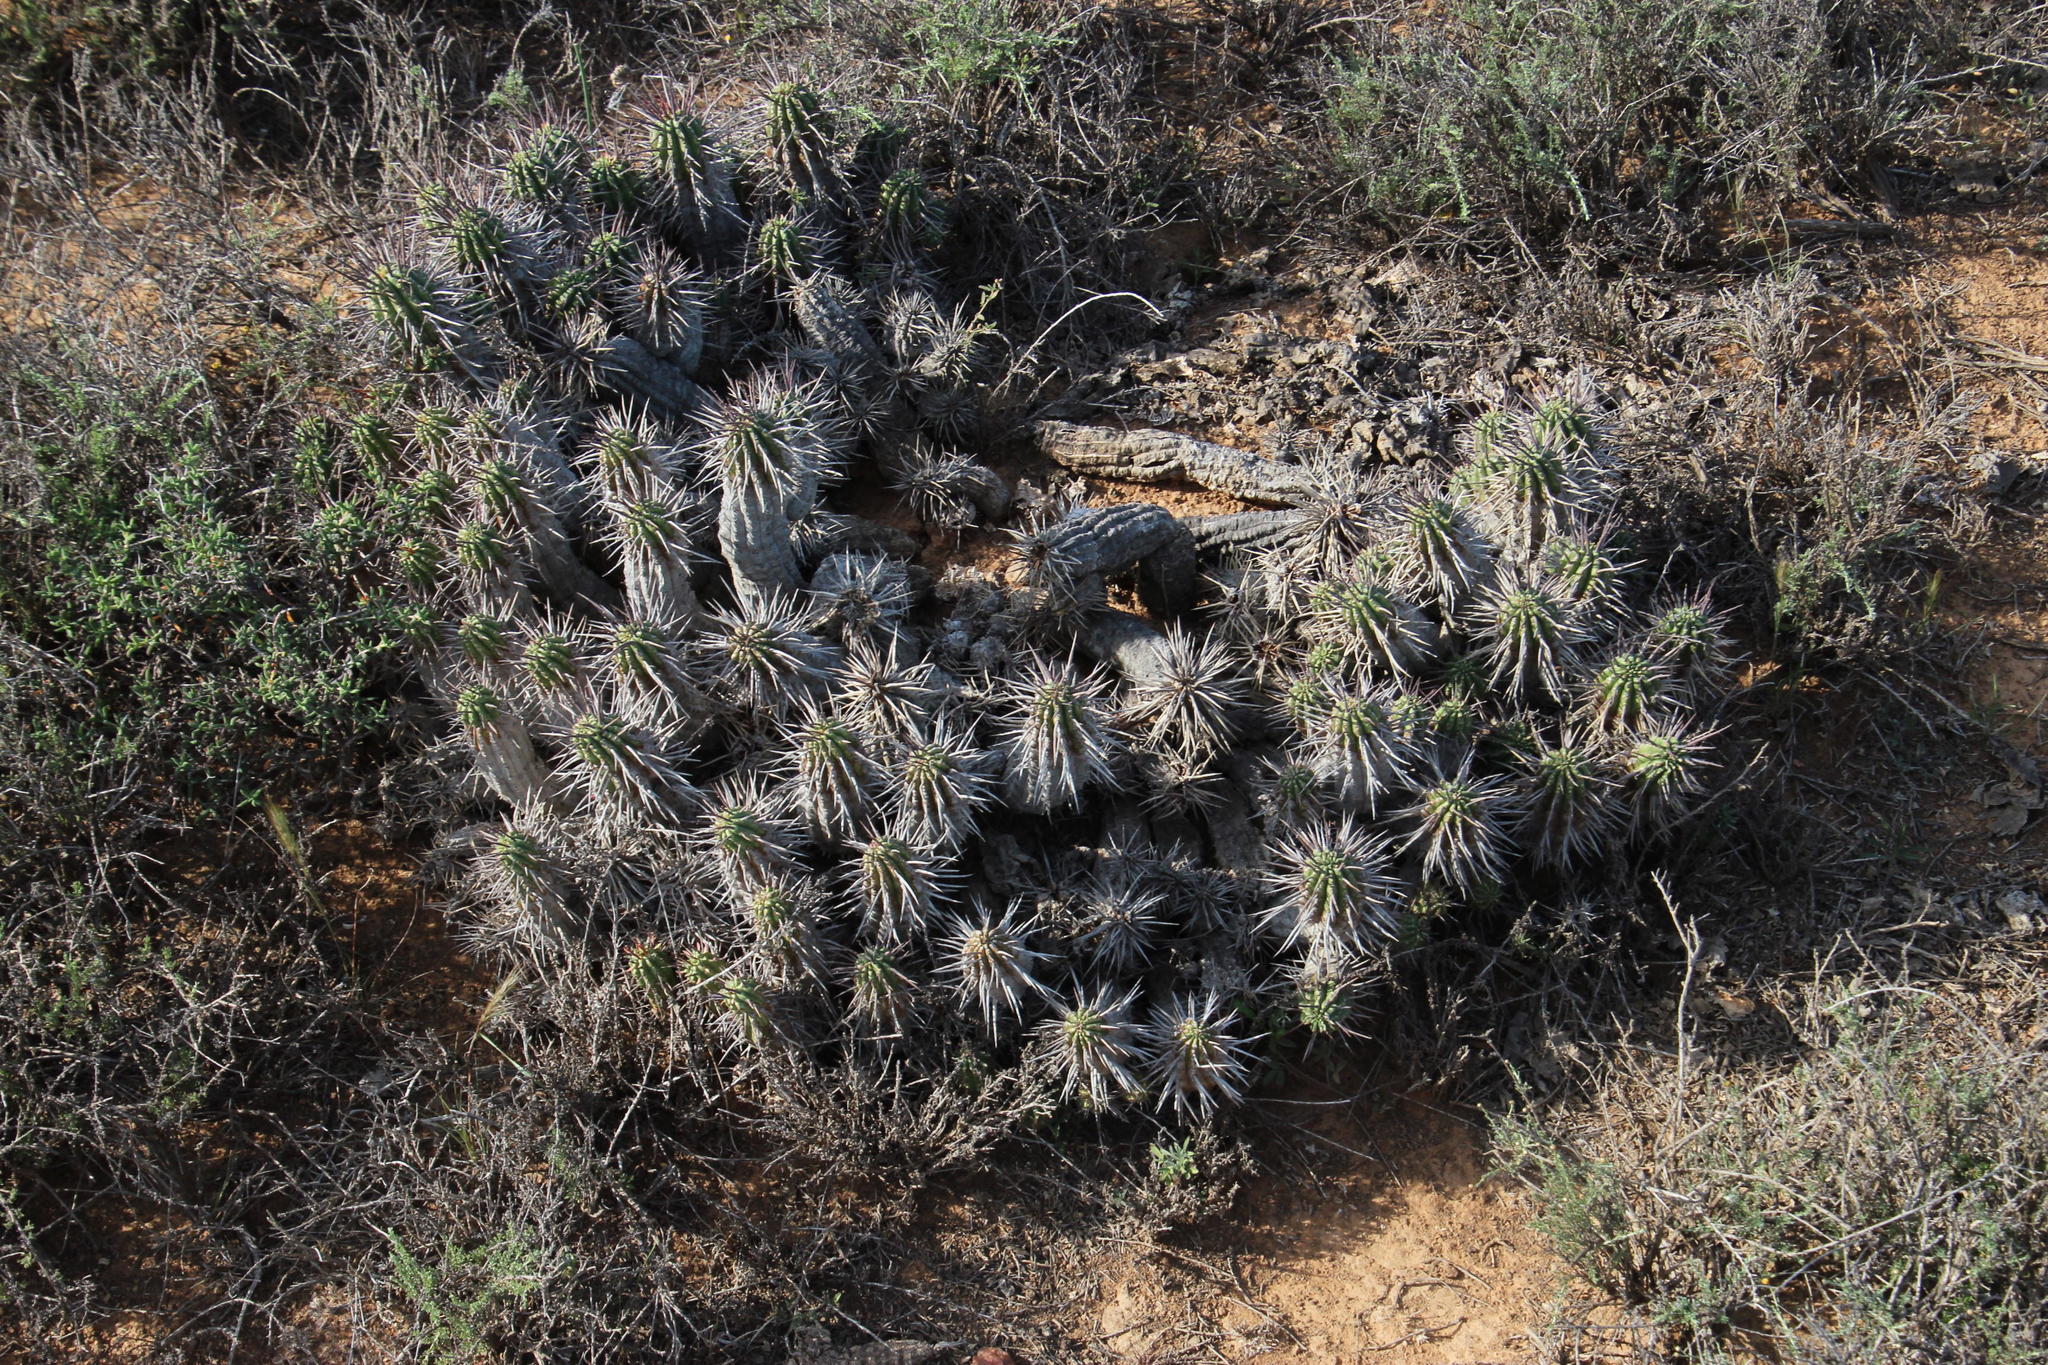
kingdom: Plantae
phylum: Tracheophyta
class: Magnoliopsida
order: Malpighiales
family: Euphorbiaceae
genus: Euphorbia
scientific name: Euphorbia ferox
